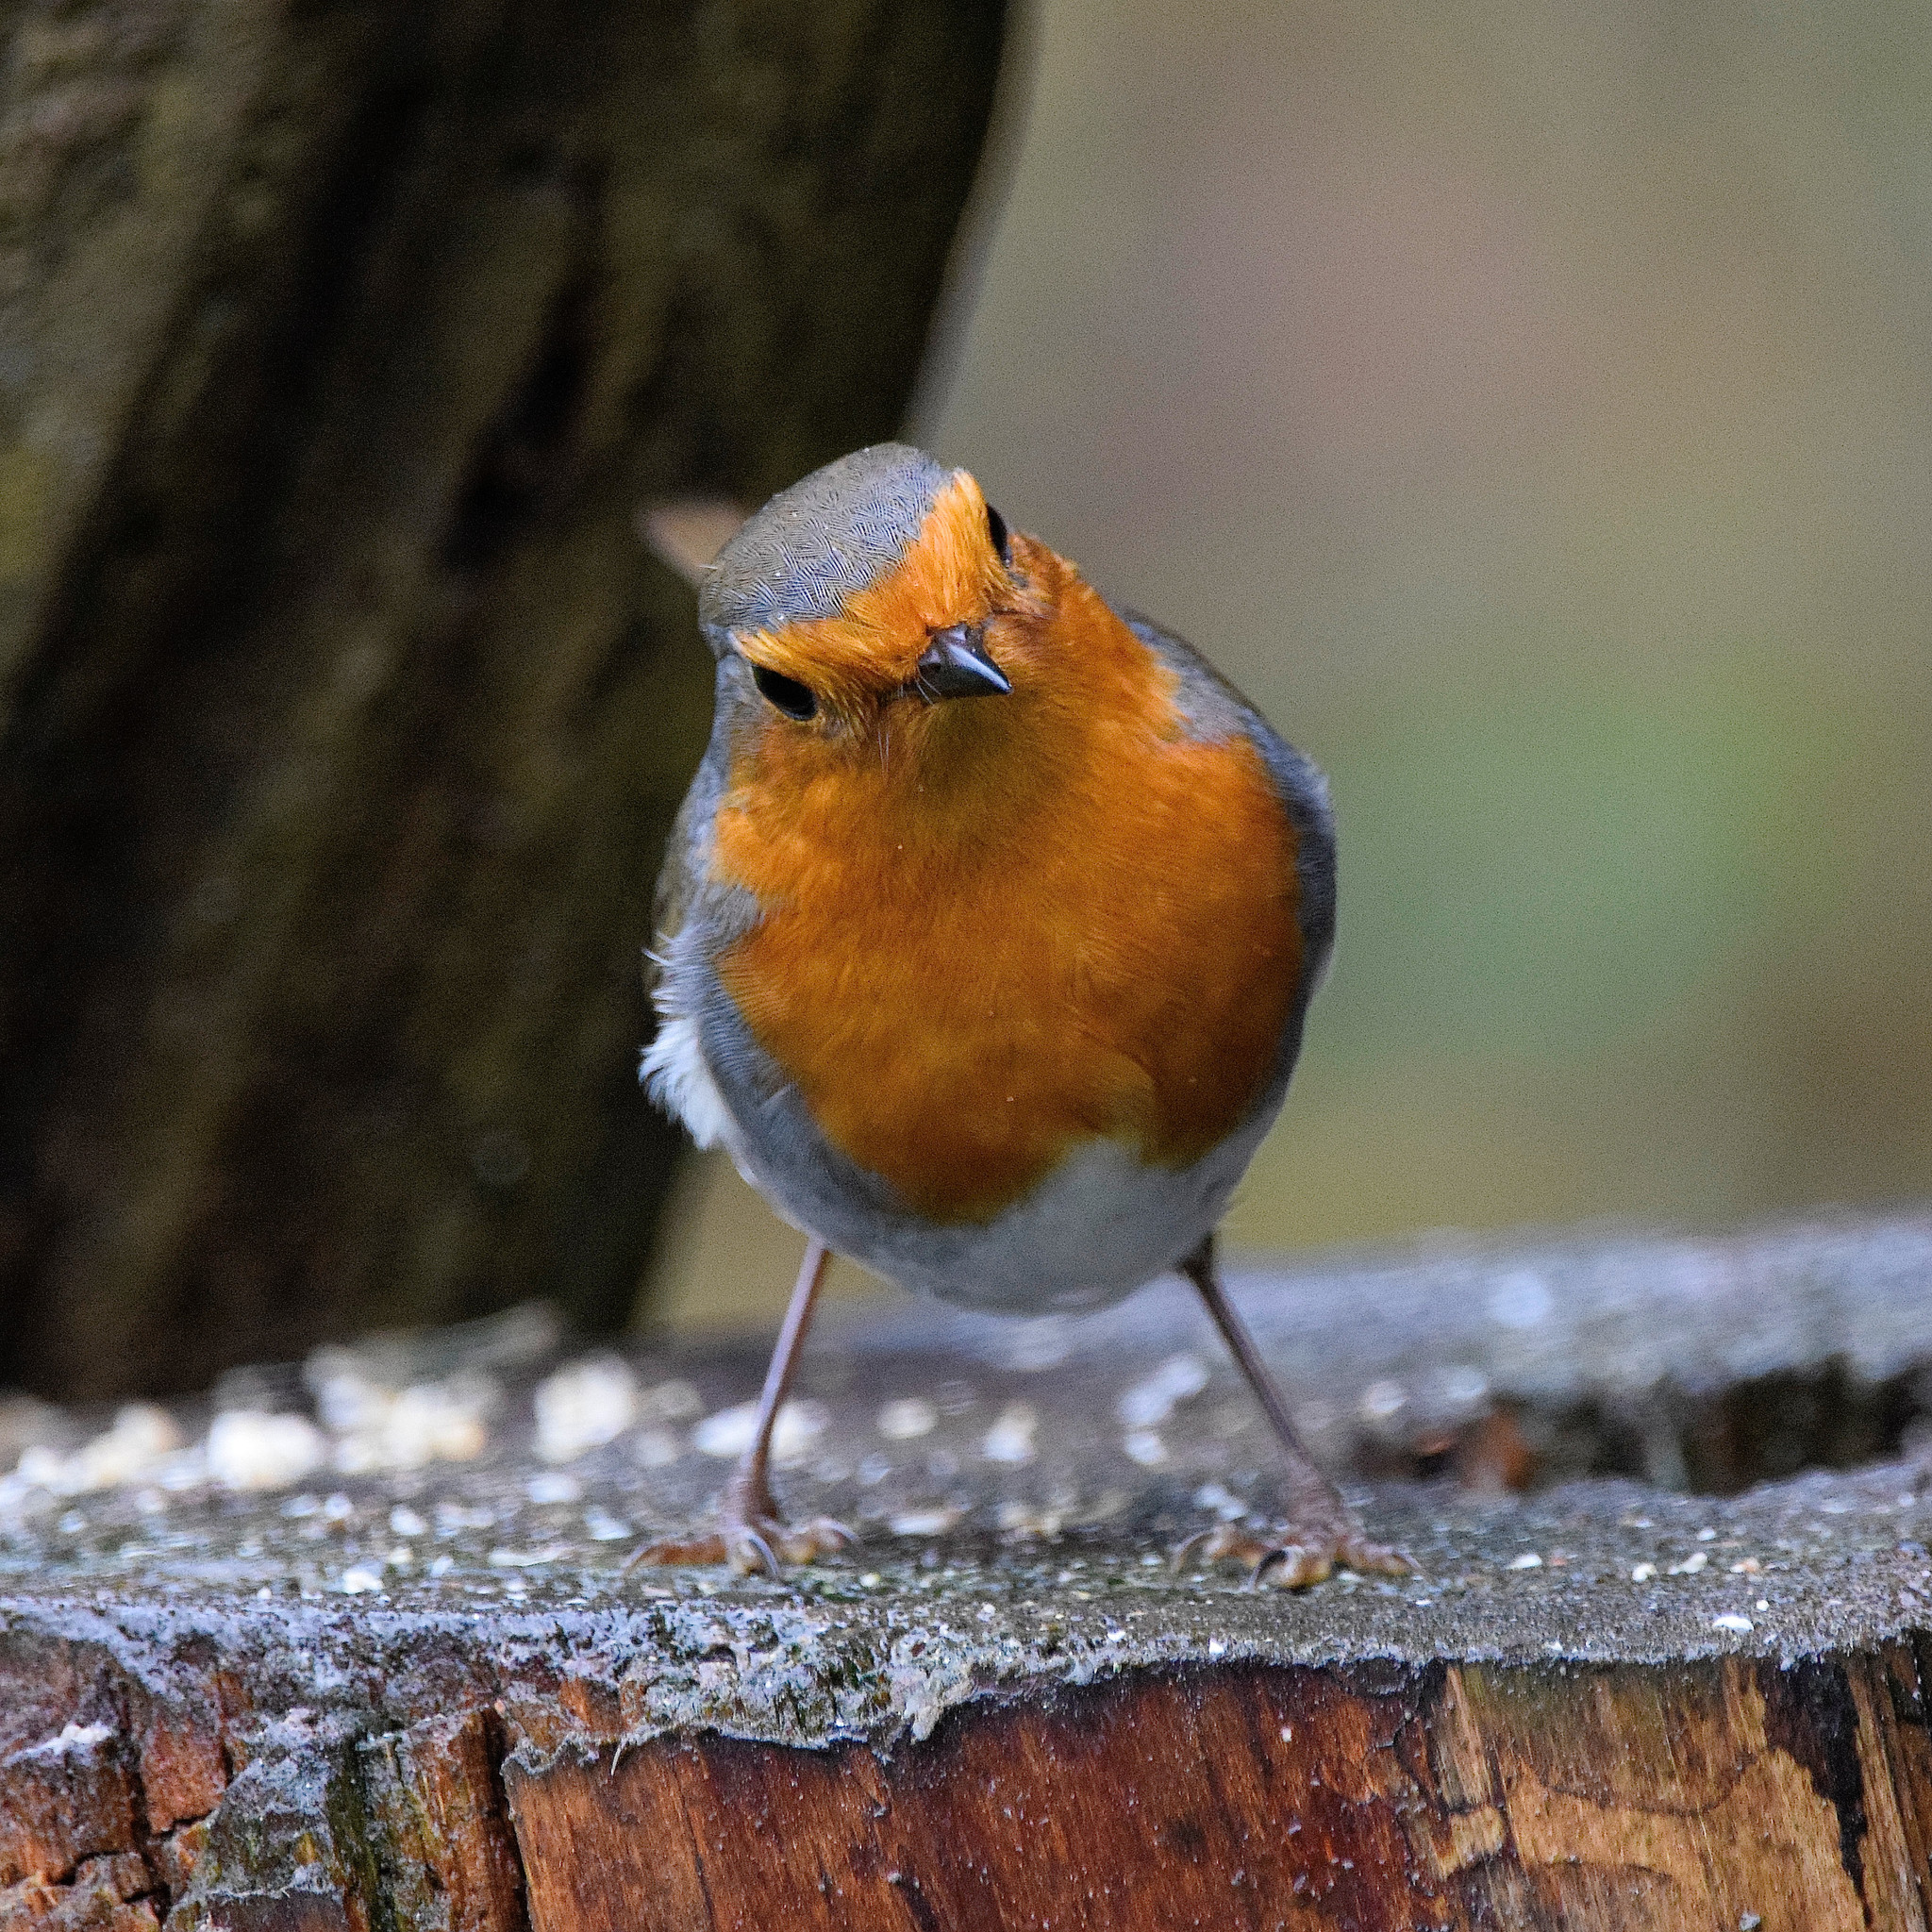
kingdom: Animalia
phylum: Chordata
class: Aves
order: Passeriformes
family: Muscicapidae
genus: Erithacus
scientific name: Erithacus rubecula
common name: European robin
